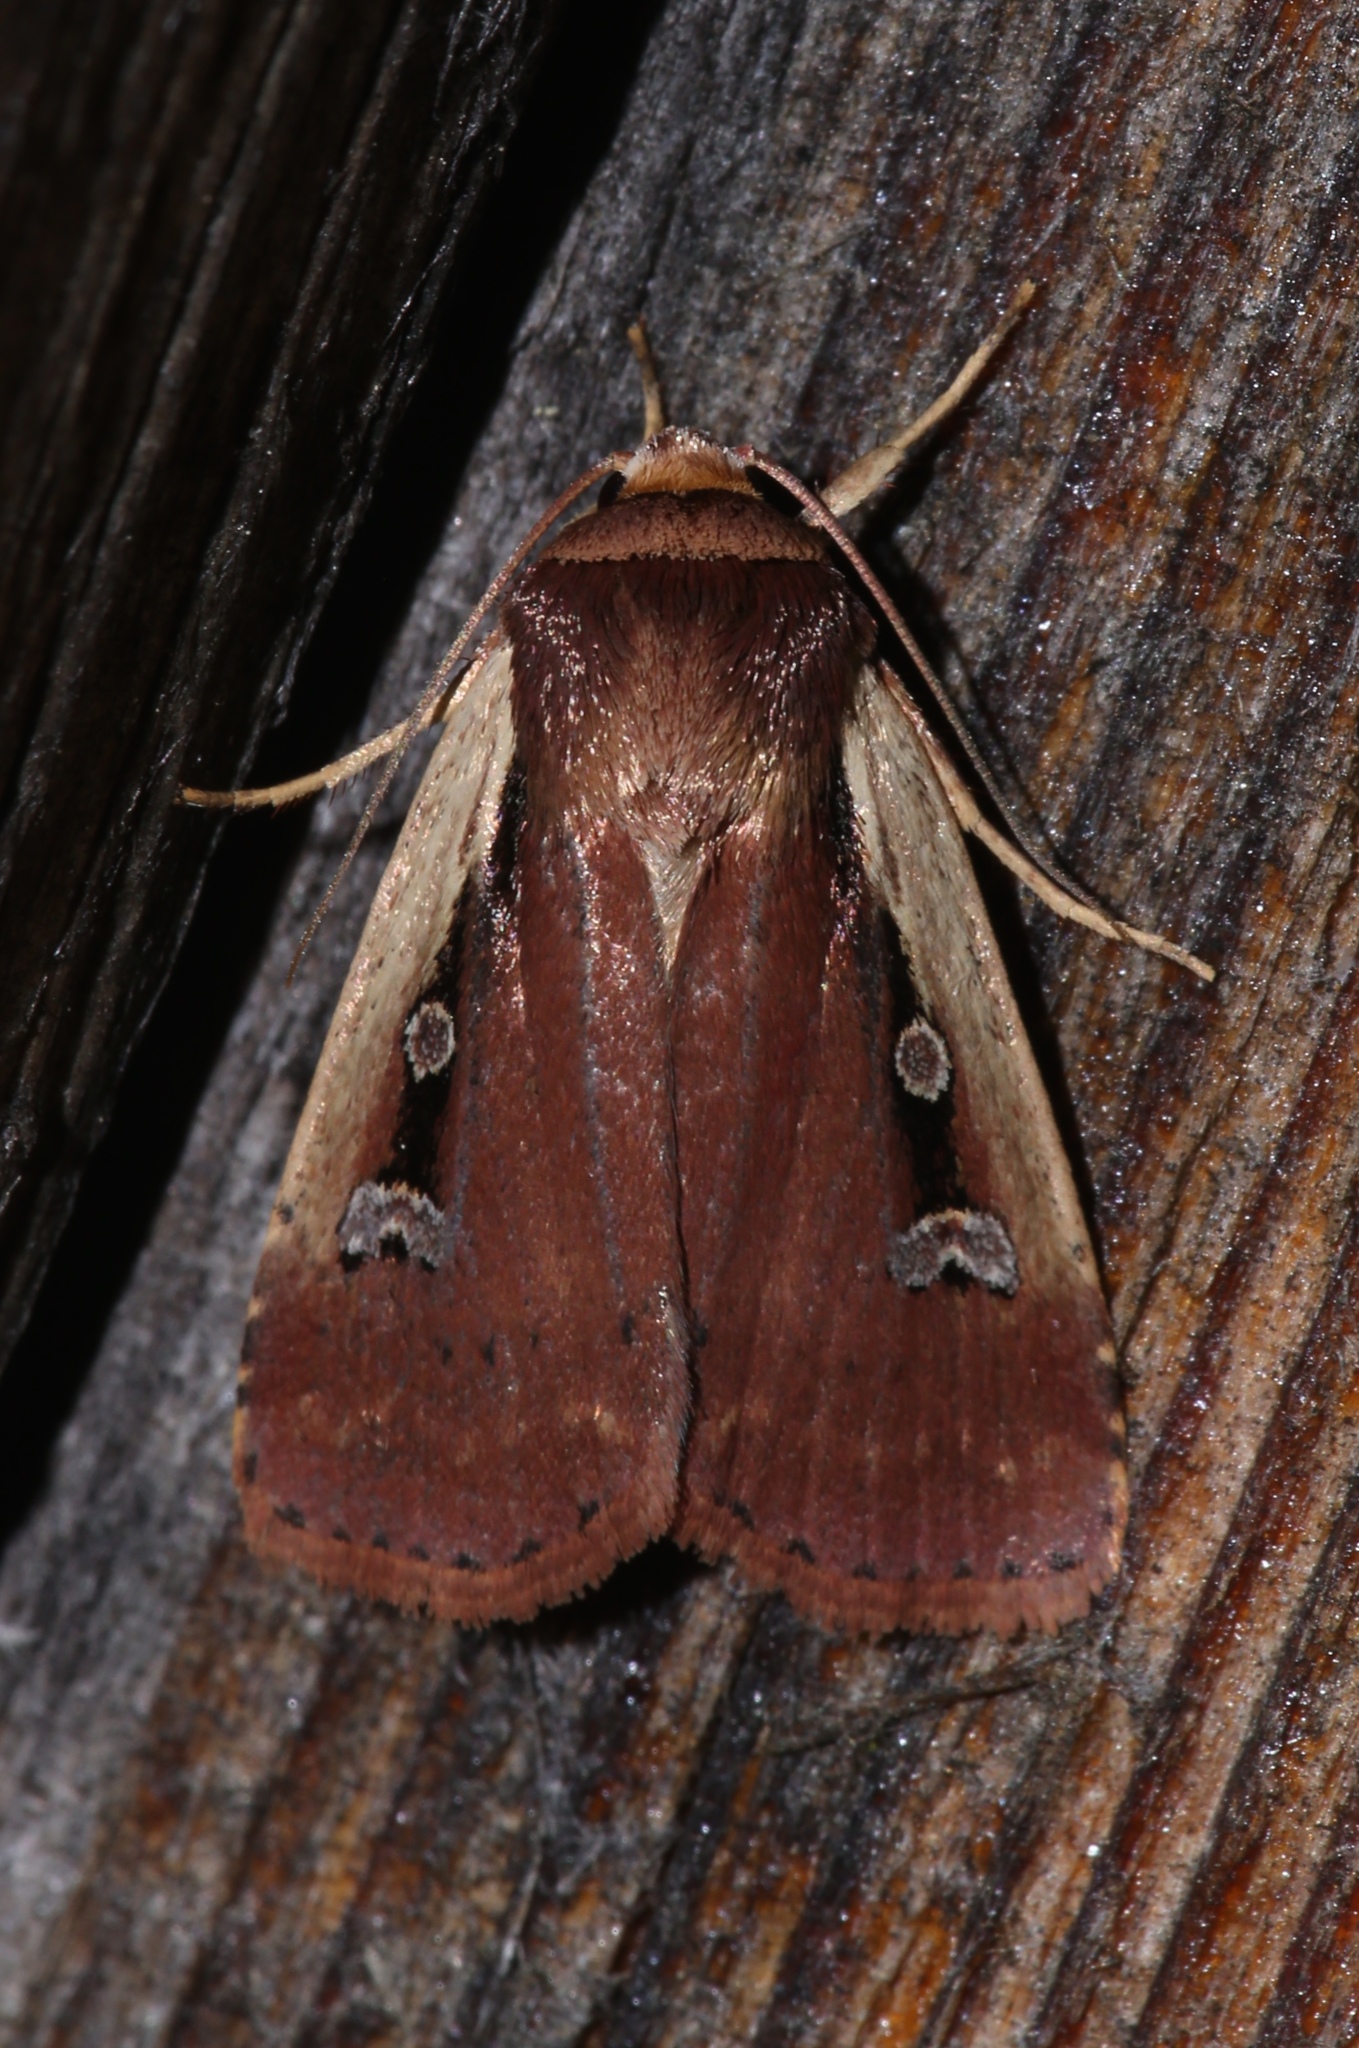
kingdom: Animalia
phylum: Arthropoda
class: Insecta
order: Lepidoptera
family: Noctuidae
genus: Ochropleura
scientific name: Ochropleura implecta
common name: Flame-shouldered dart
